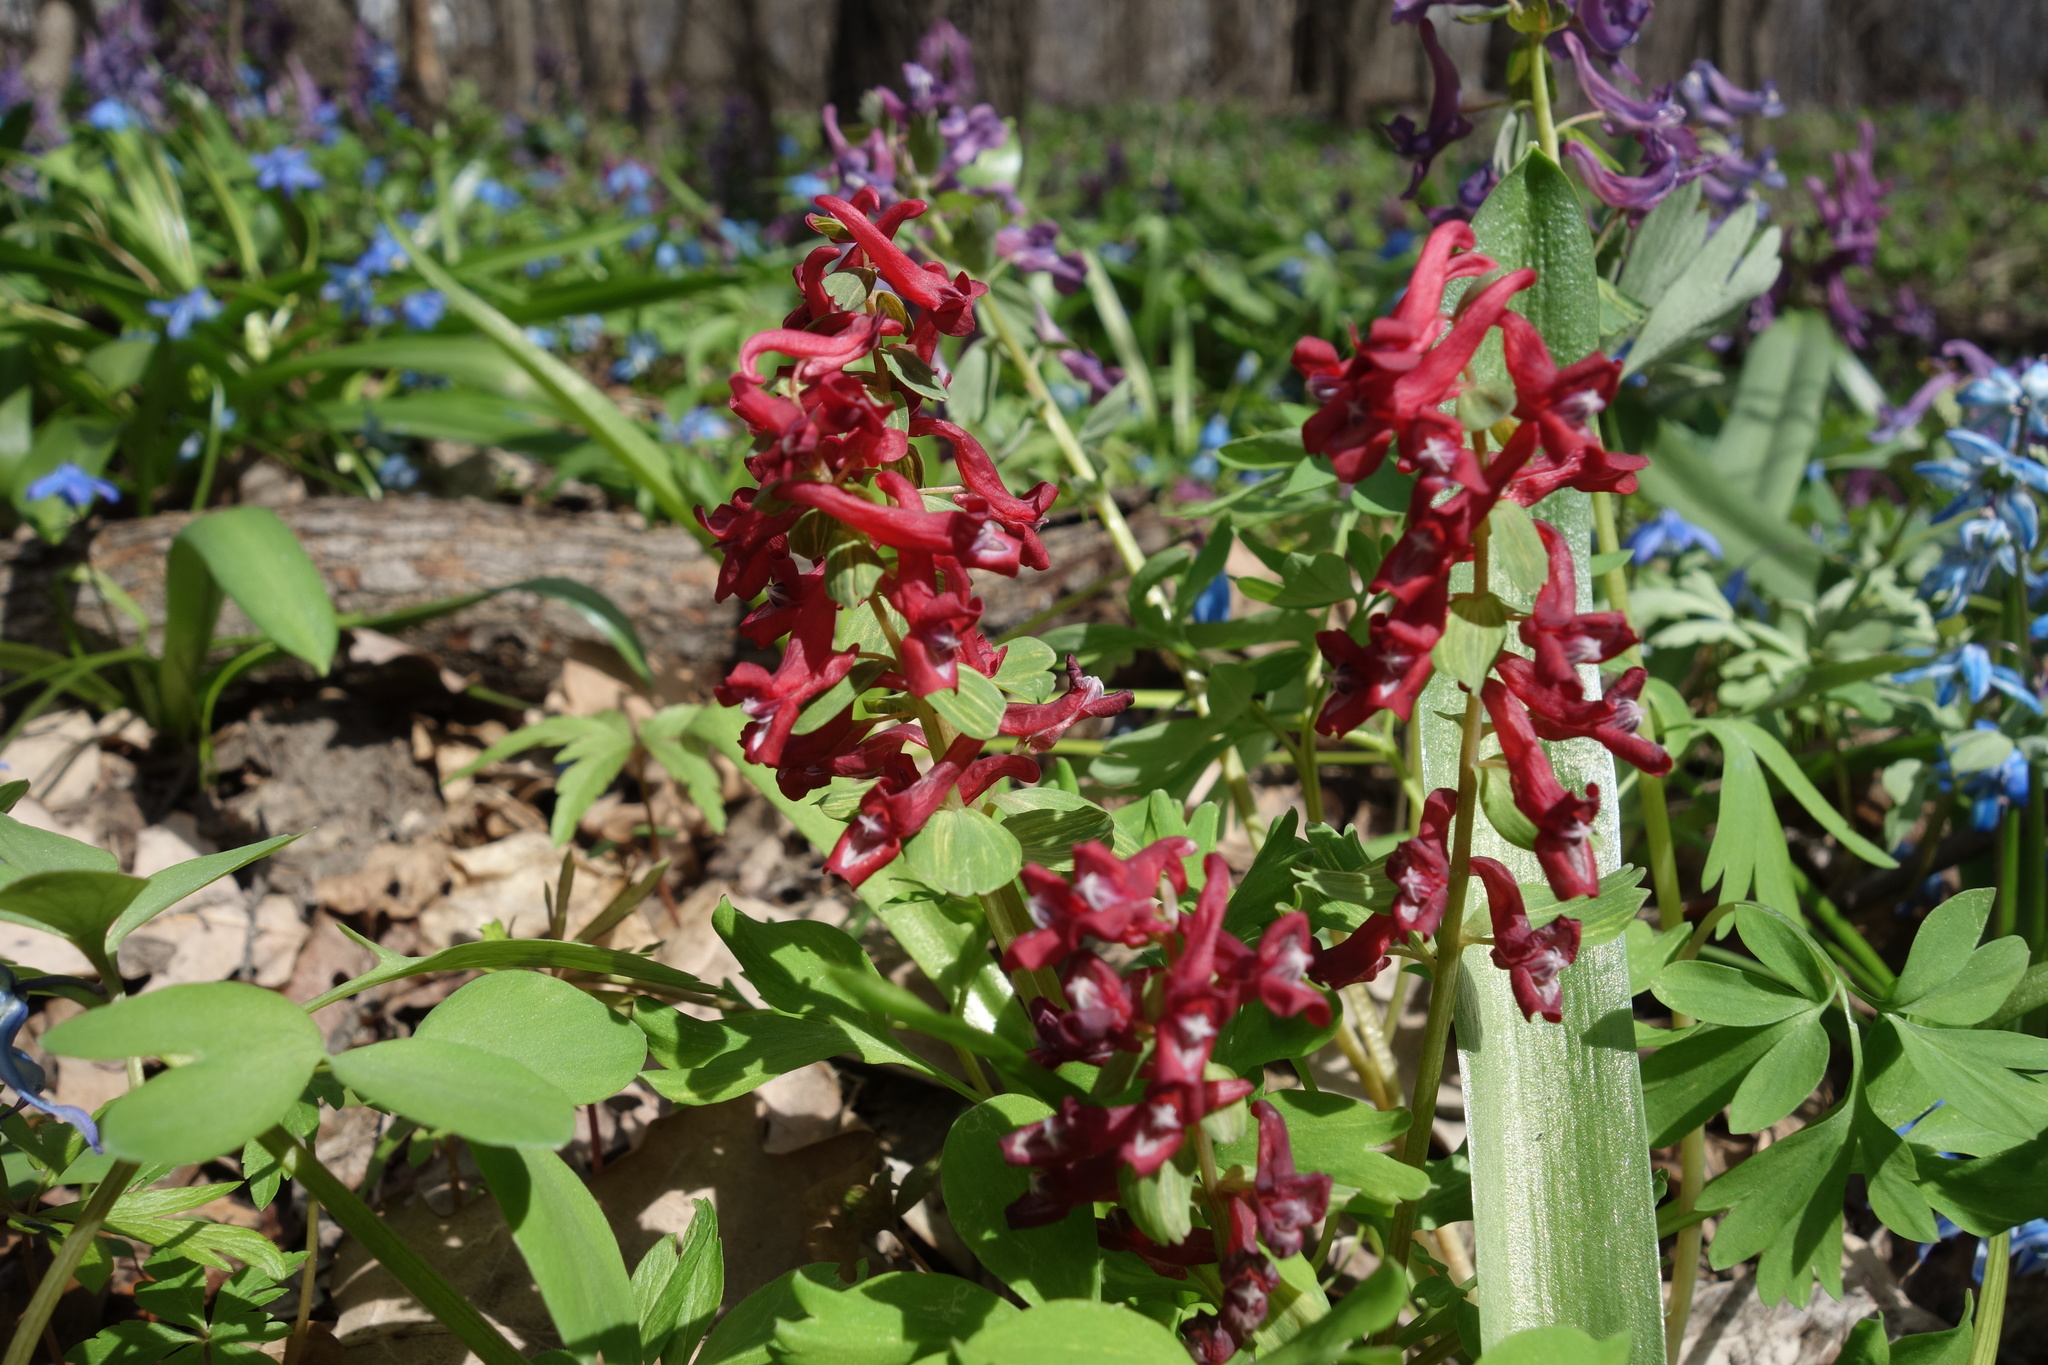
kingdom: Plantae
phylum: Tracheophyta
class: Magnoliopsida
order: Ranunculales
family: Papaveraceae
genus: Corydalis
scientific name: Corydalis solida
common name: Bird-in-a-bush
